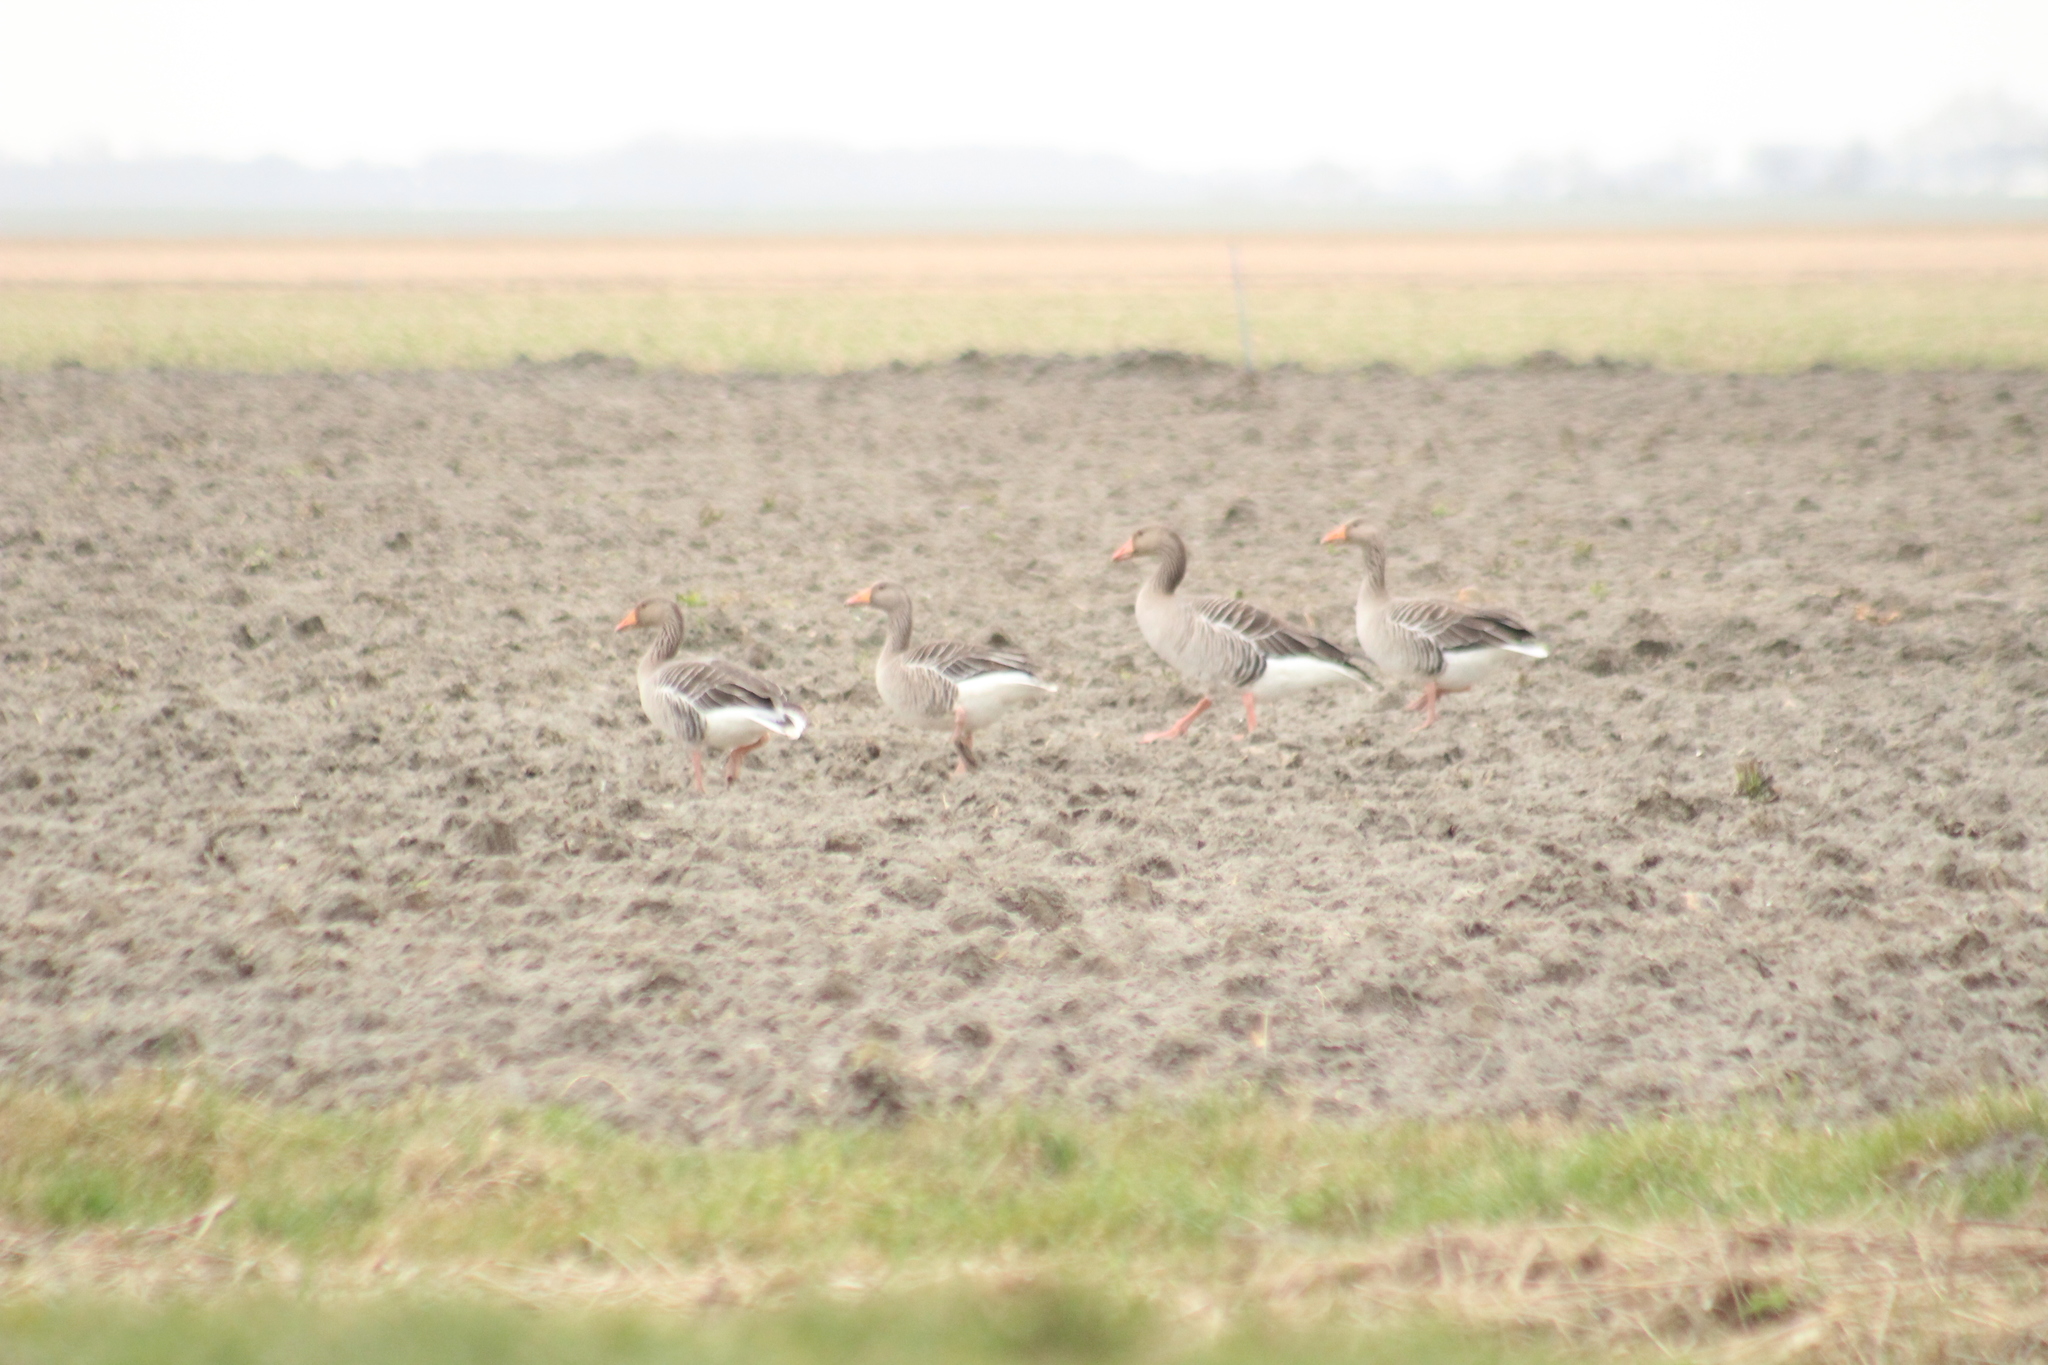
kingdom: Animalia
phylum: Chordata
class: Aves
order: Anseriformes
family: Anatidae
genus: Anser
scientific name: Anser anser
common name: Greylag goose
